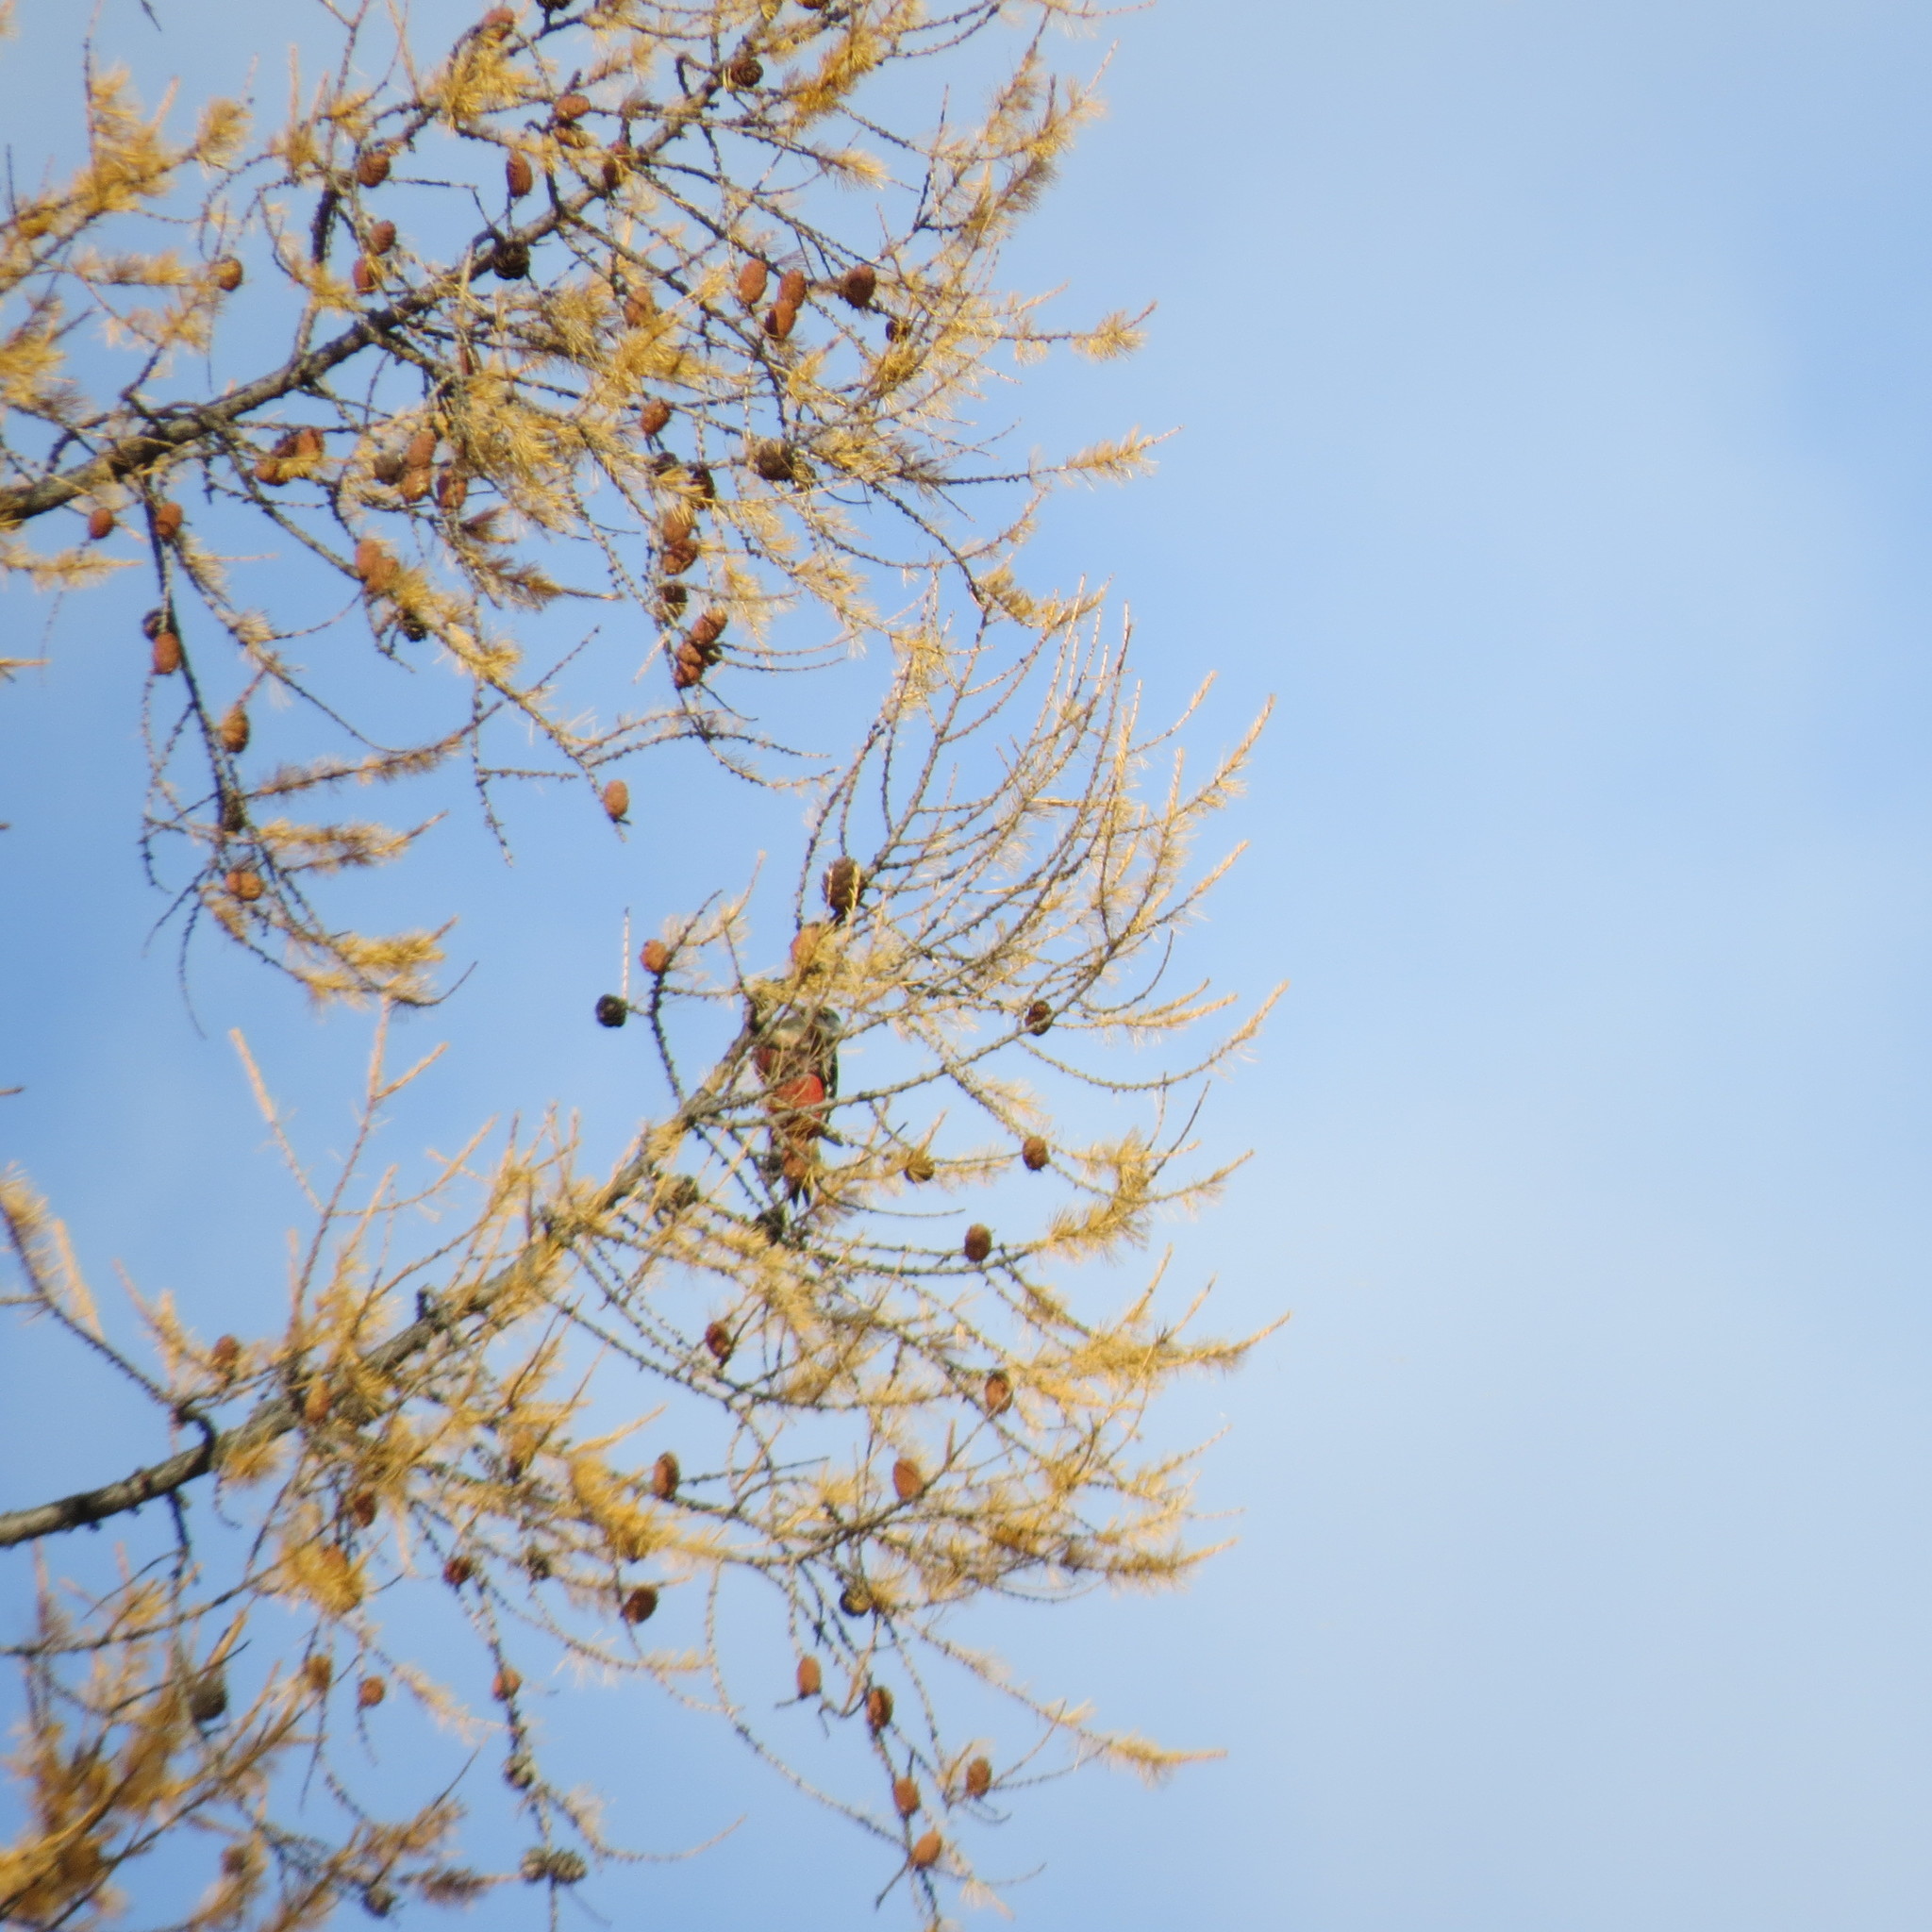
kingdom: Animalia
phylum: Chordata
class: Aves
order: Piciformes
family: Picidae
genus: Dendrocopos
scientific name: Dendrocopos major
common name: Great spotted woodpecker
